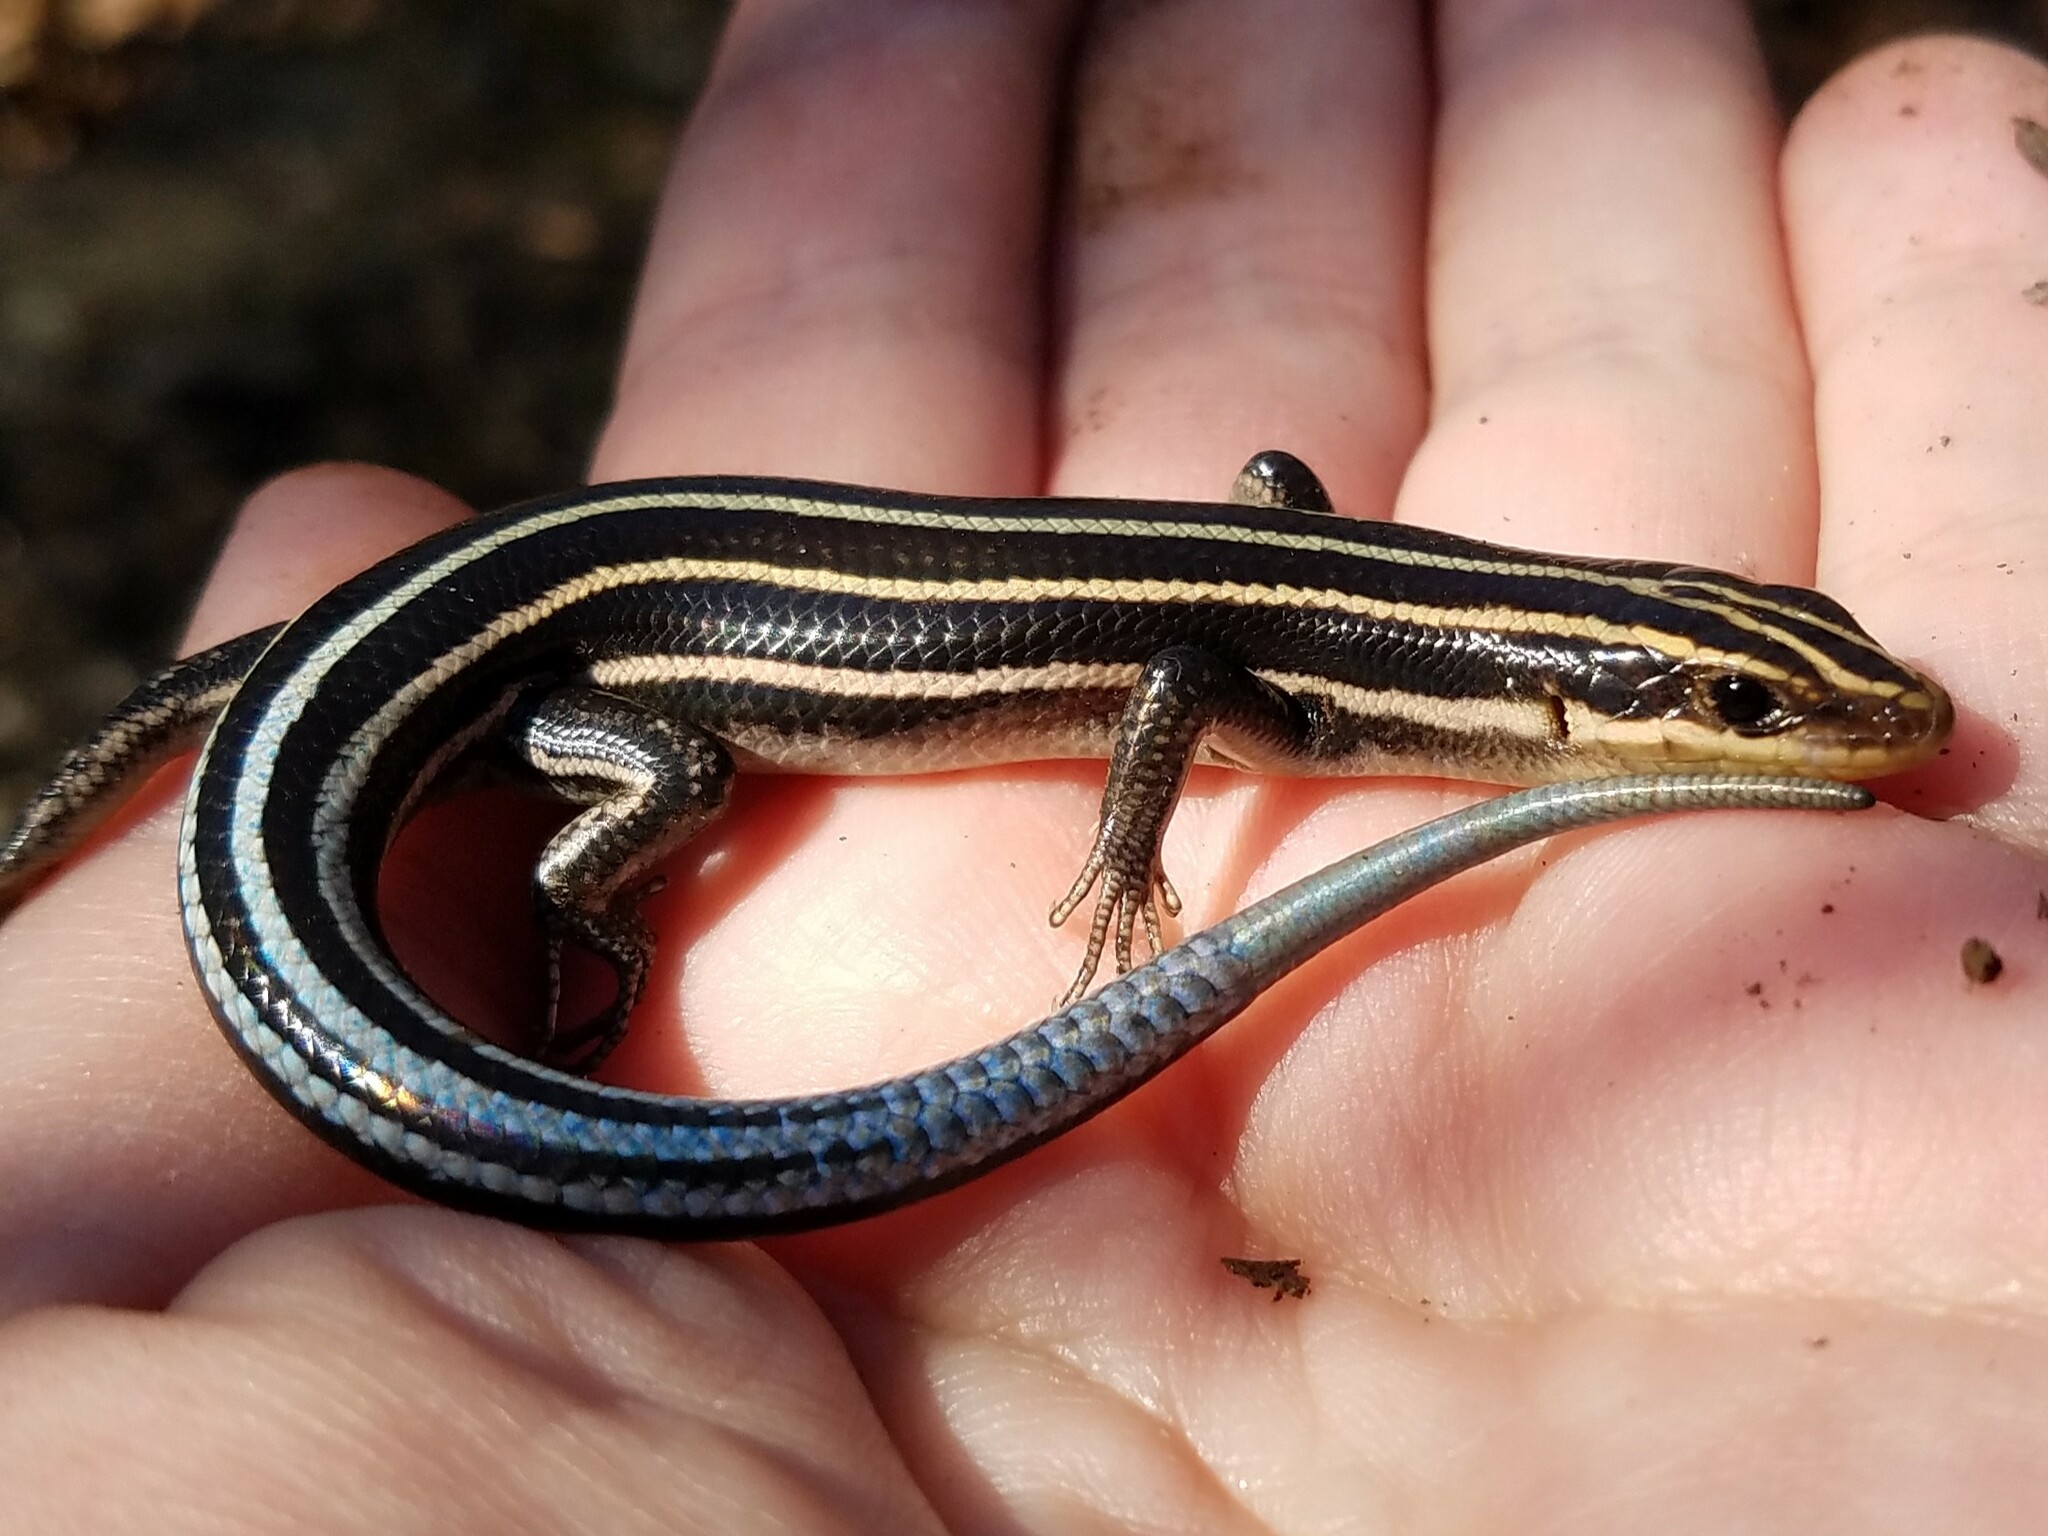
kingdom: Animalia
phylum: Chordata
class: Squamata
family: Scincidae
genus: Plestiodon
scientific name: Plestiodon fasciatus
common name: Five-lined skink
